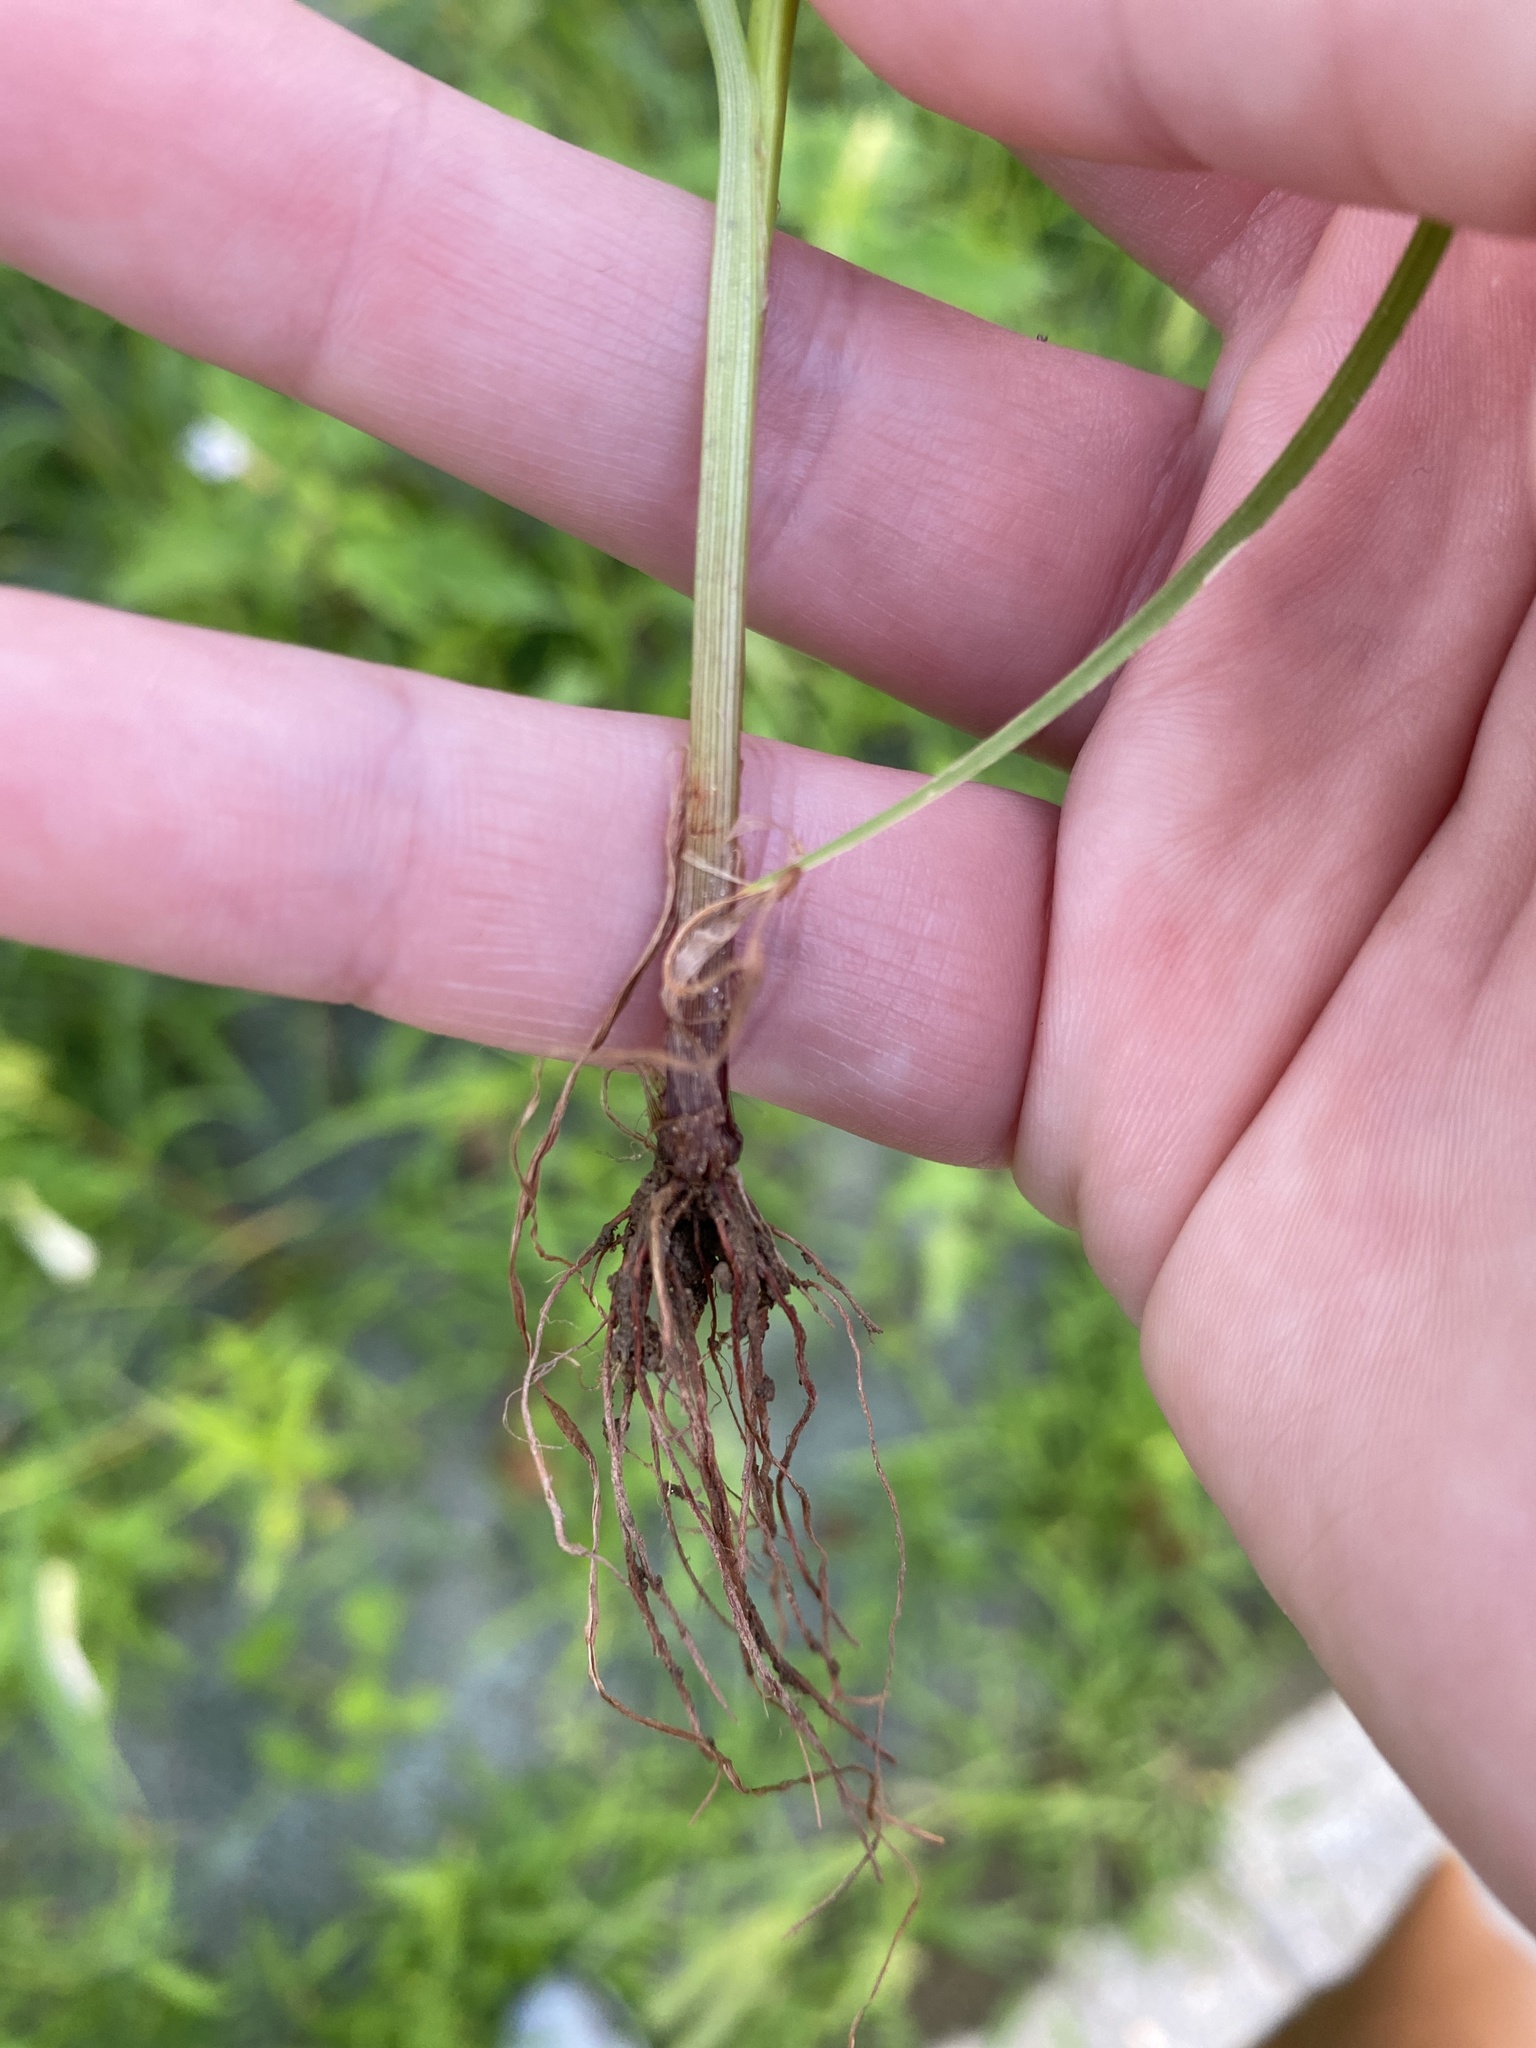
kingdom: Plantae
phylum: Tracheophyta
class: Liliopsida
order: Poales
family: Cyperaceae
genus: Cyperus
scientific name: Cyperus iria
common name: Ricefield flatsedge
